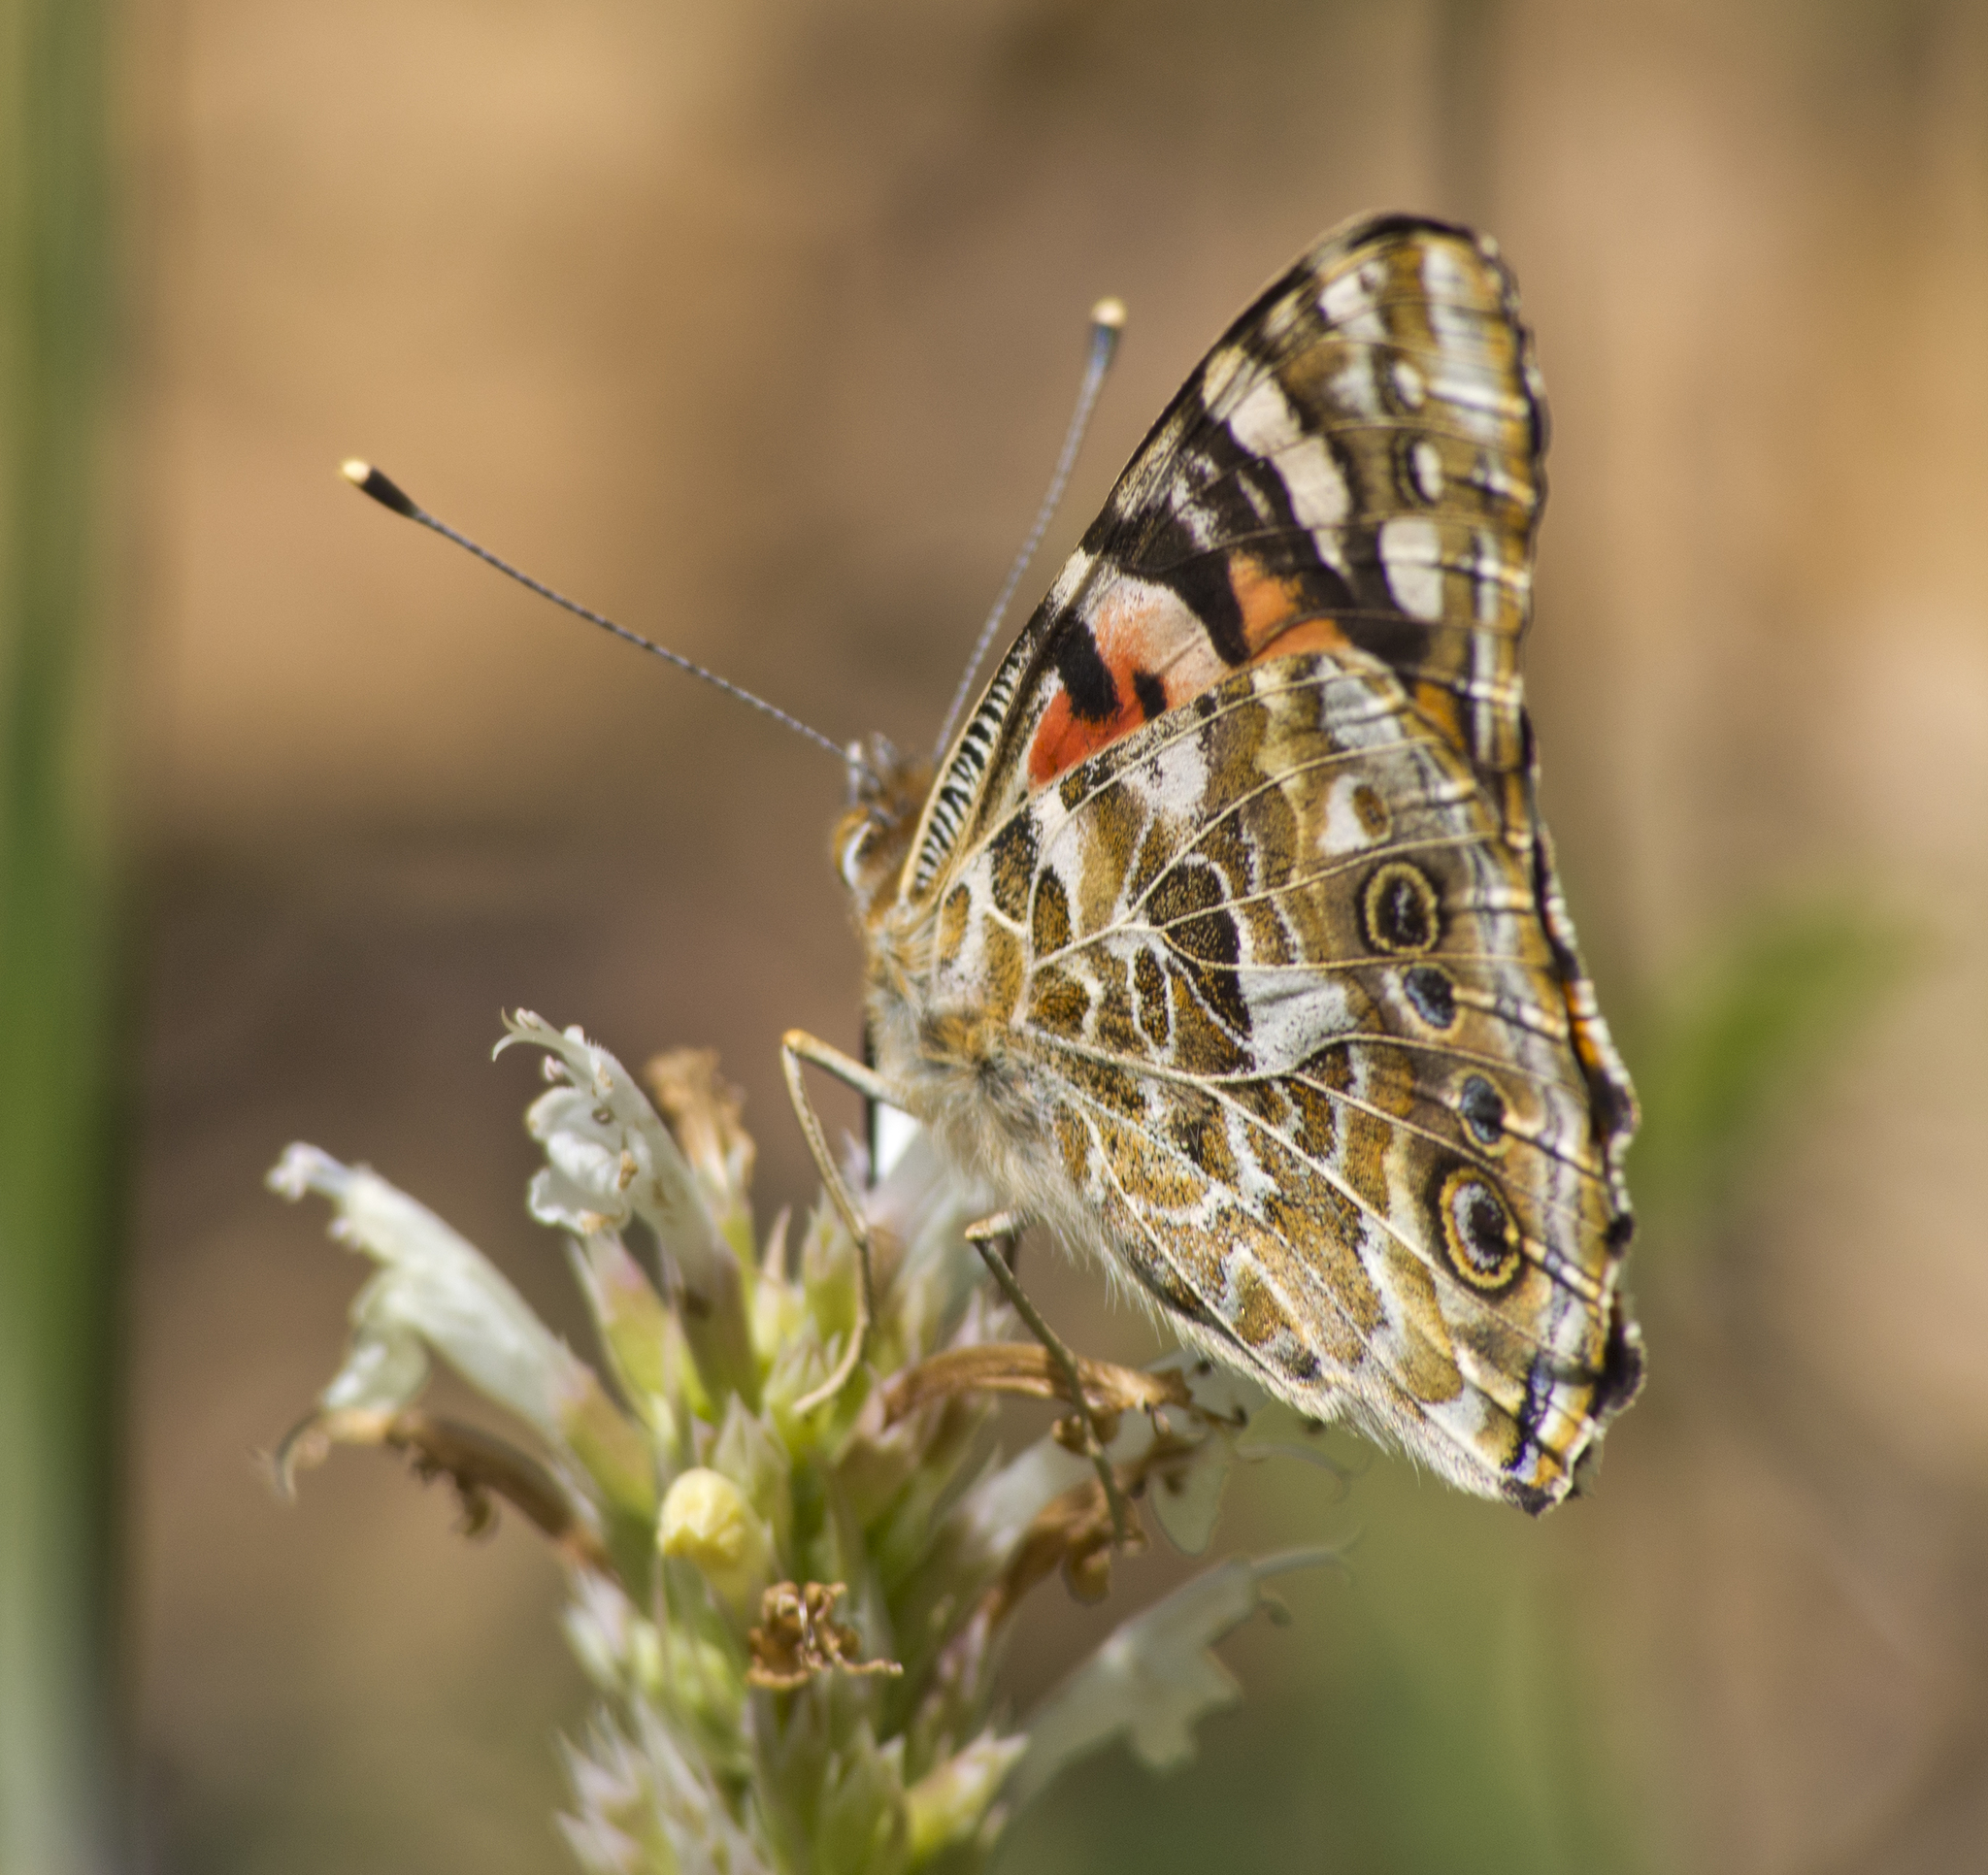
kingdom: Animalia
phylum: Arthropoda
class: Insecta
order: Lepidoptera
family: Nymphalidae
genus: Vanessa
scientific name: Vanessa cardui
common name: Painted lady
